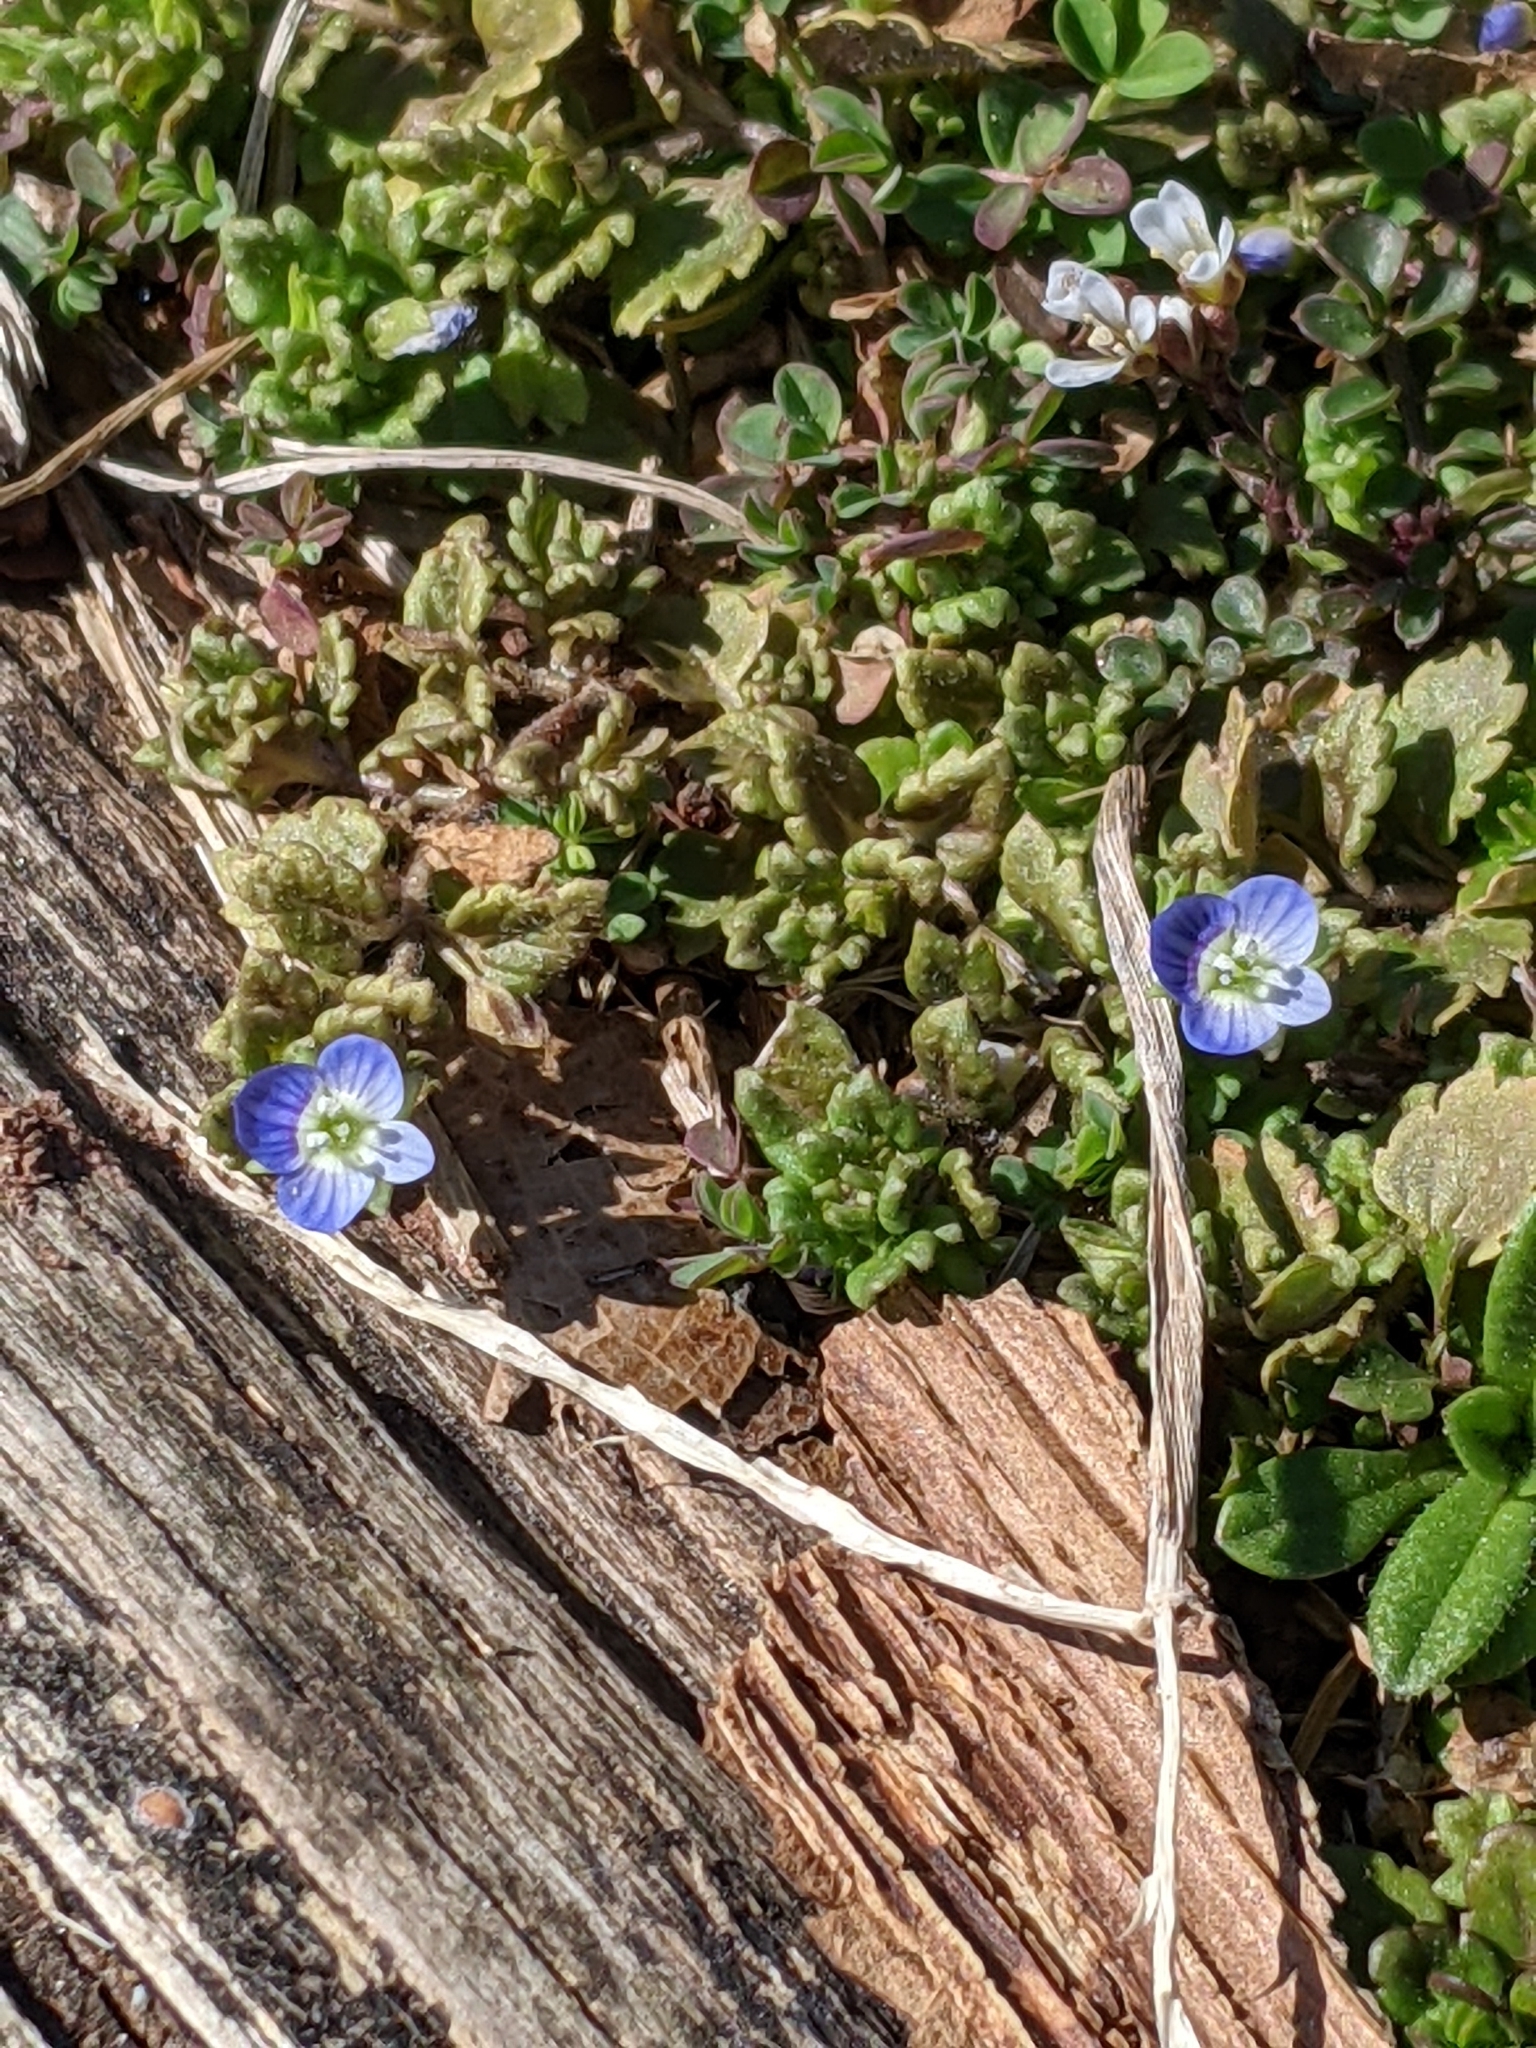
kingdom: Plantae
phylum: Tracheophyta
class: Magnoliopsida
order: Lamiales
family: Plantaginaceae
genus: Veronica
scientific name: Veronica persica
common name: Common field-speedwell
